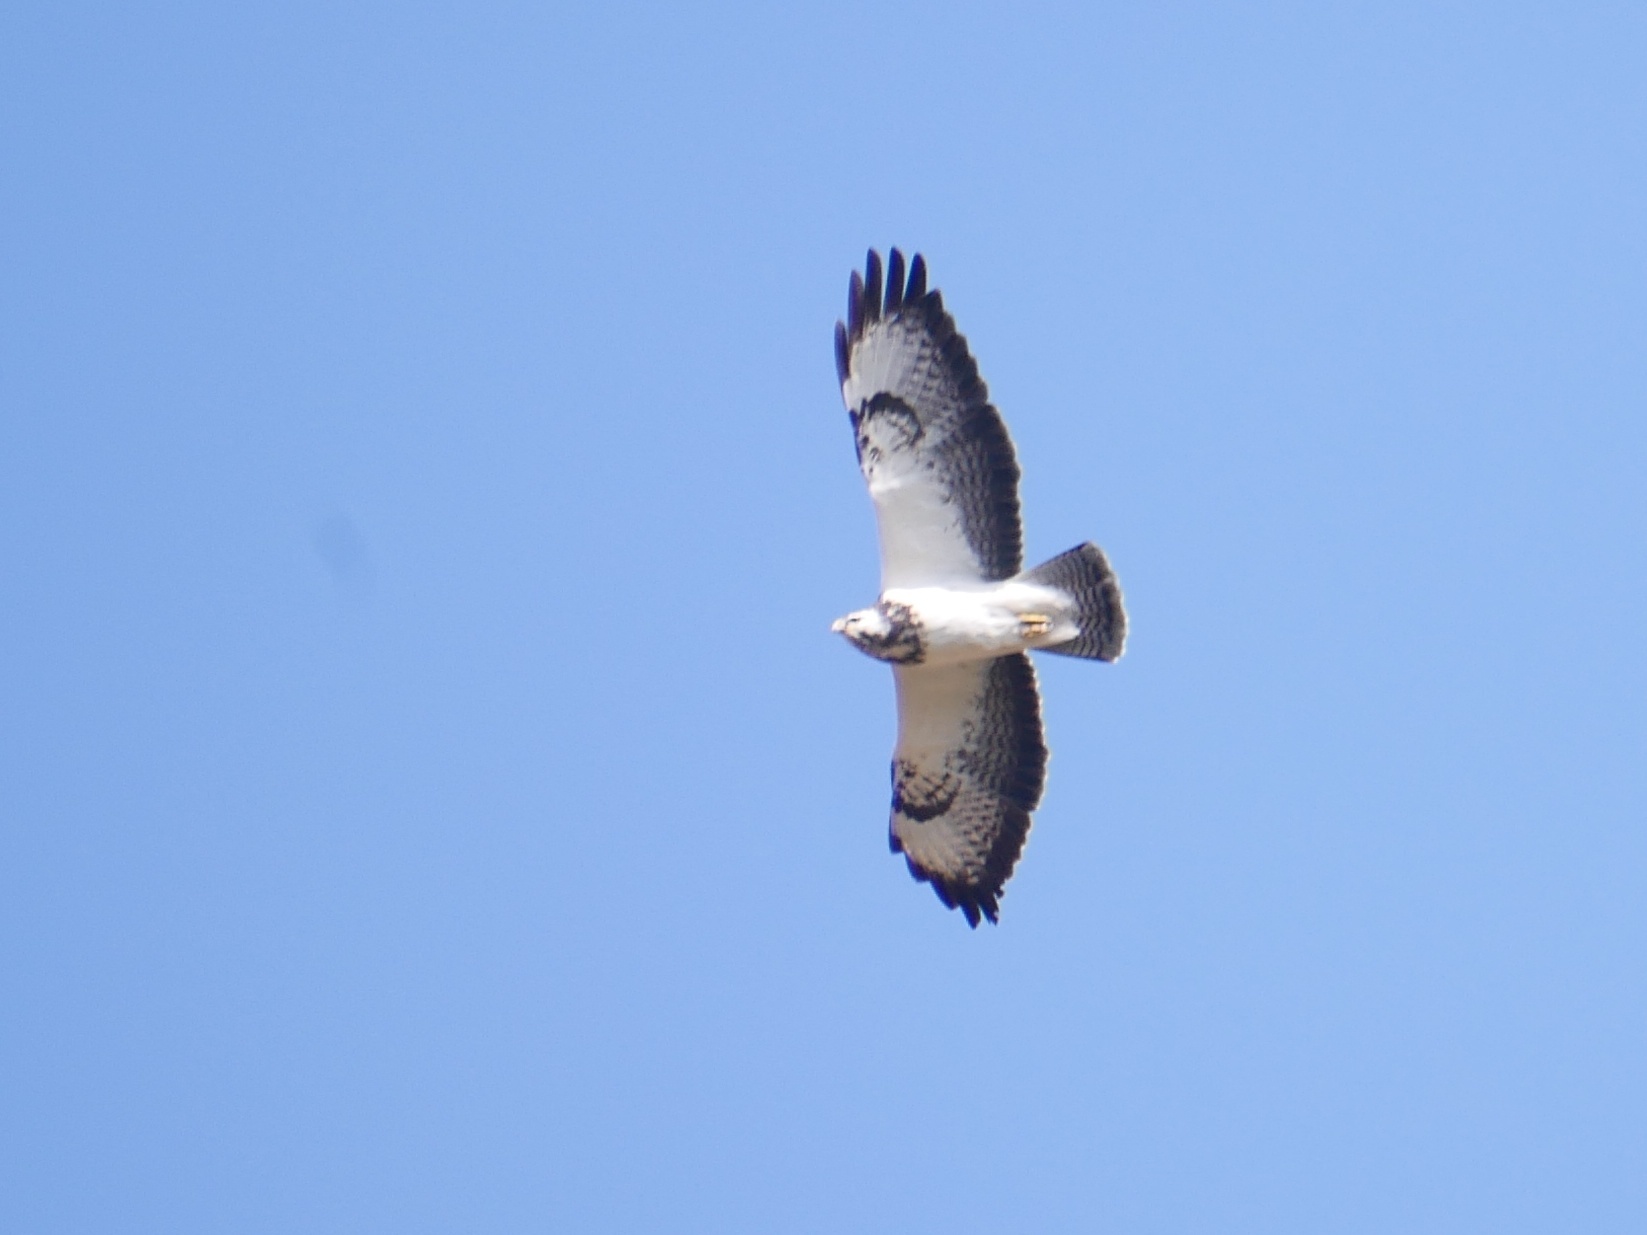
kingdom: Animalia
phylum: Chordata
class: Aves
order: Accipitriformes
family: Accipitridae
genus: Buteo
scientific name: Buteo buteo
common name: Common buzzard
